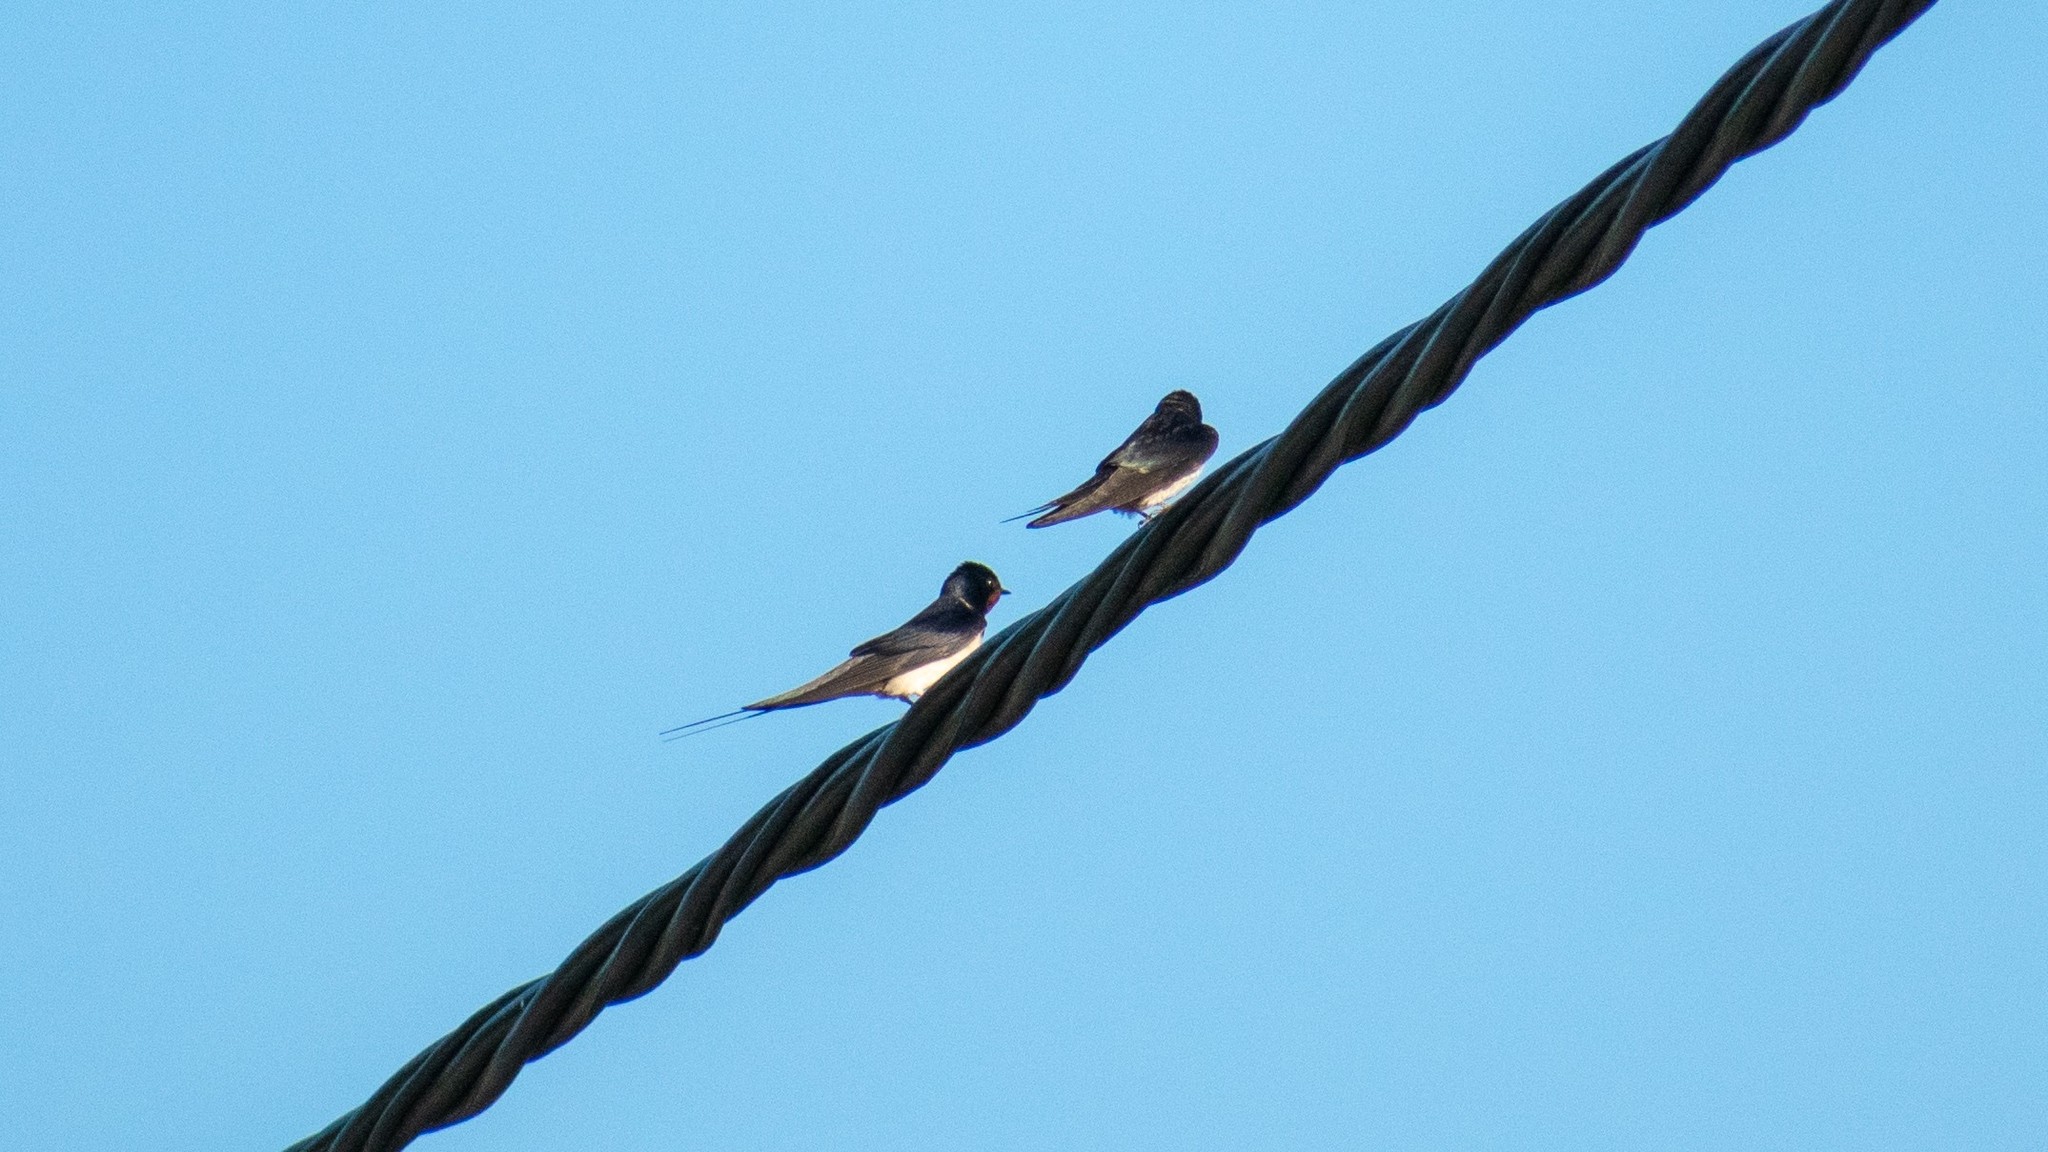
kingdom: Animalia
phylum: Chordata
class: Aves
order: Passeriformes
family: Hirundinidae
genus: Hirundo
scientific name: Hirundo rustica
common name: Barn swallow
